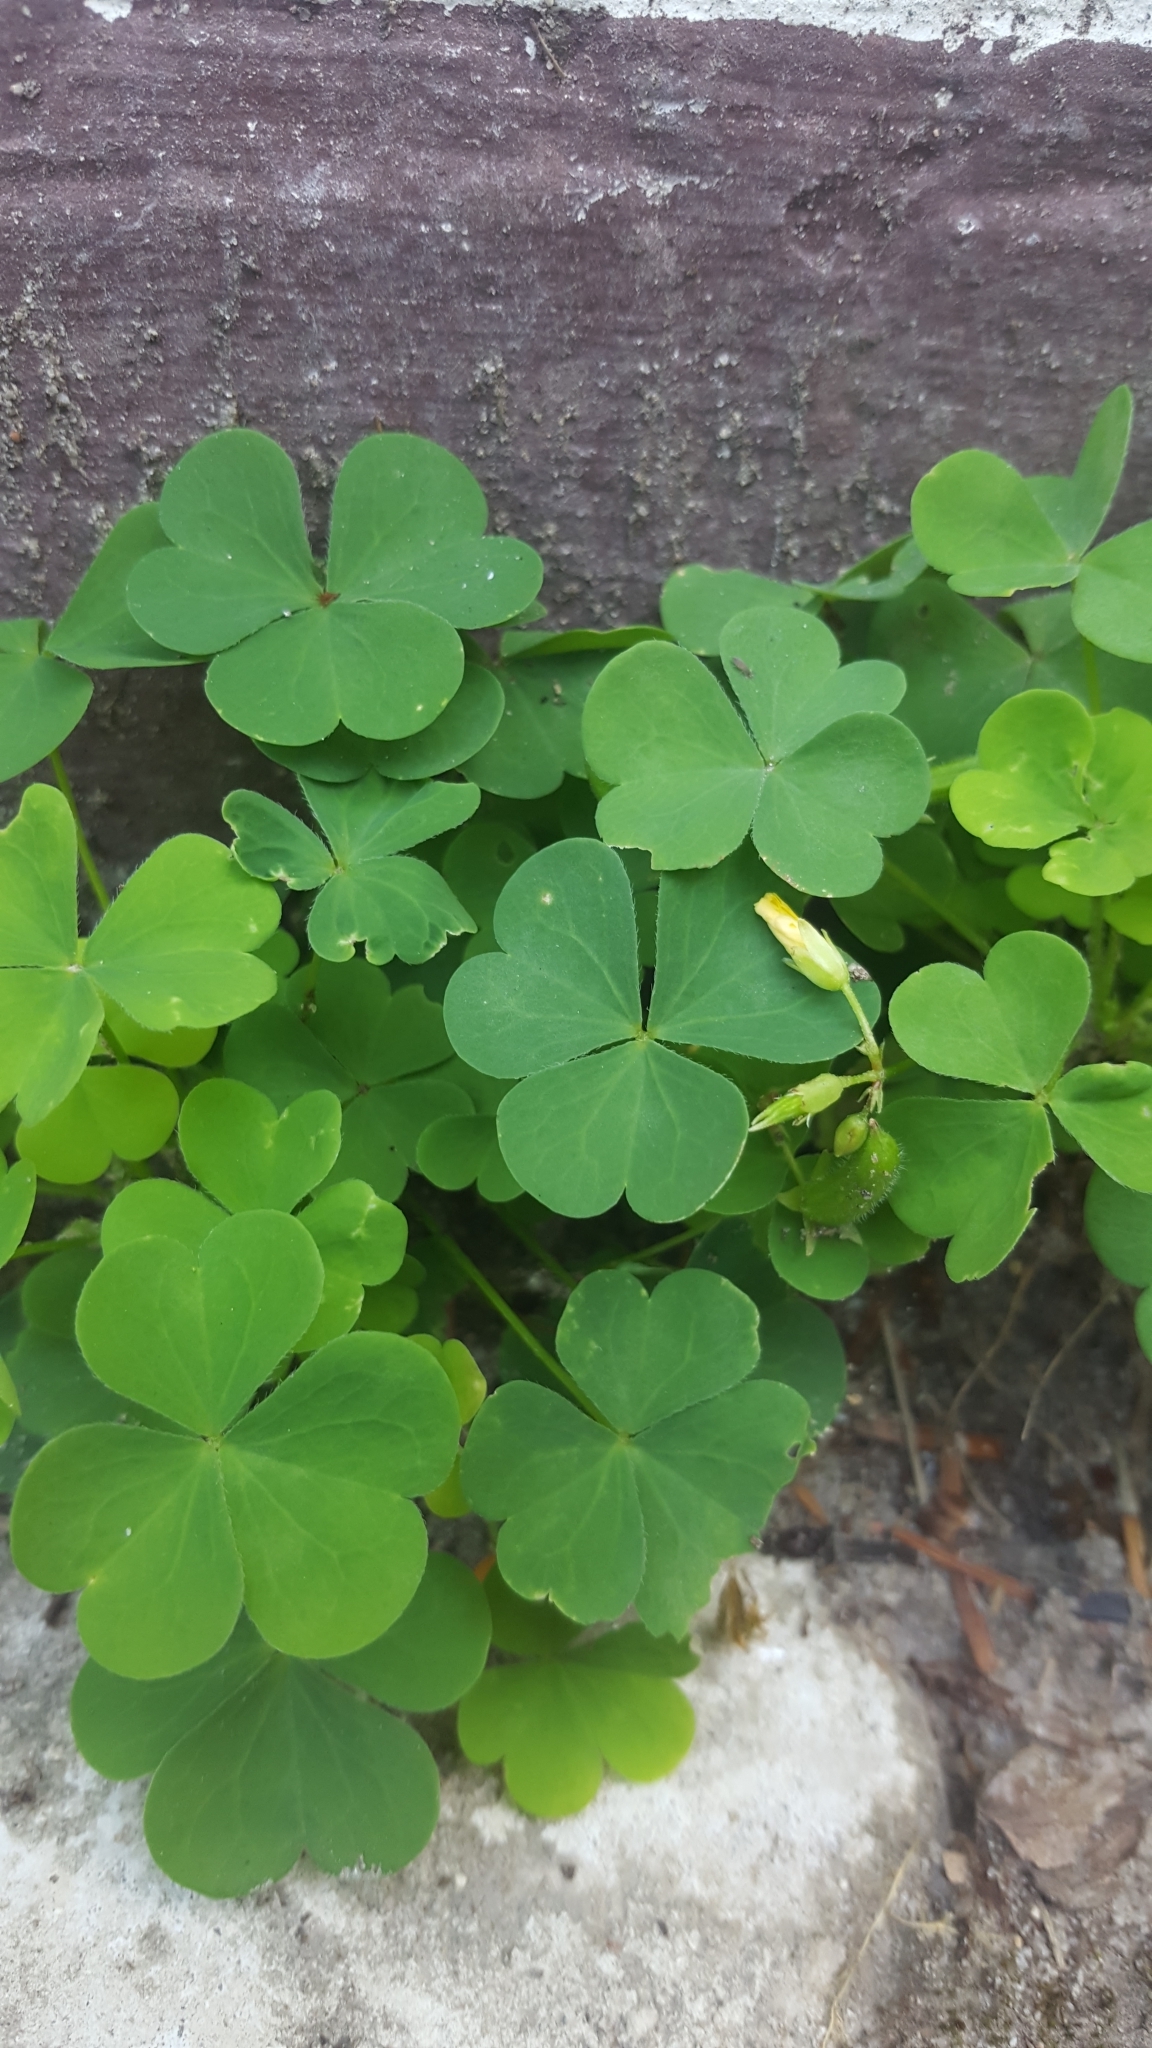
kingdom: Plantae
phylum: Tracheophyta
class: Magnoliopsida
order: Oxalidales
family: Oxalidaceae
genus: Oxalis
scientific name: Oxalis stricta
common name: Upright yellow-sorrel
